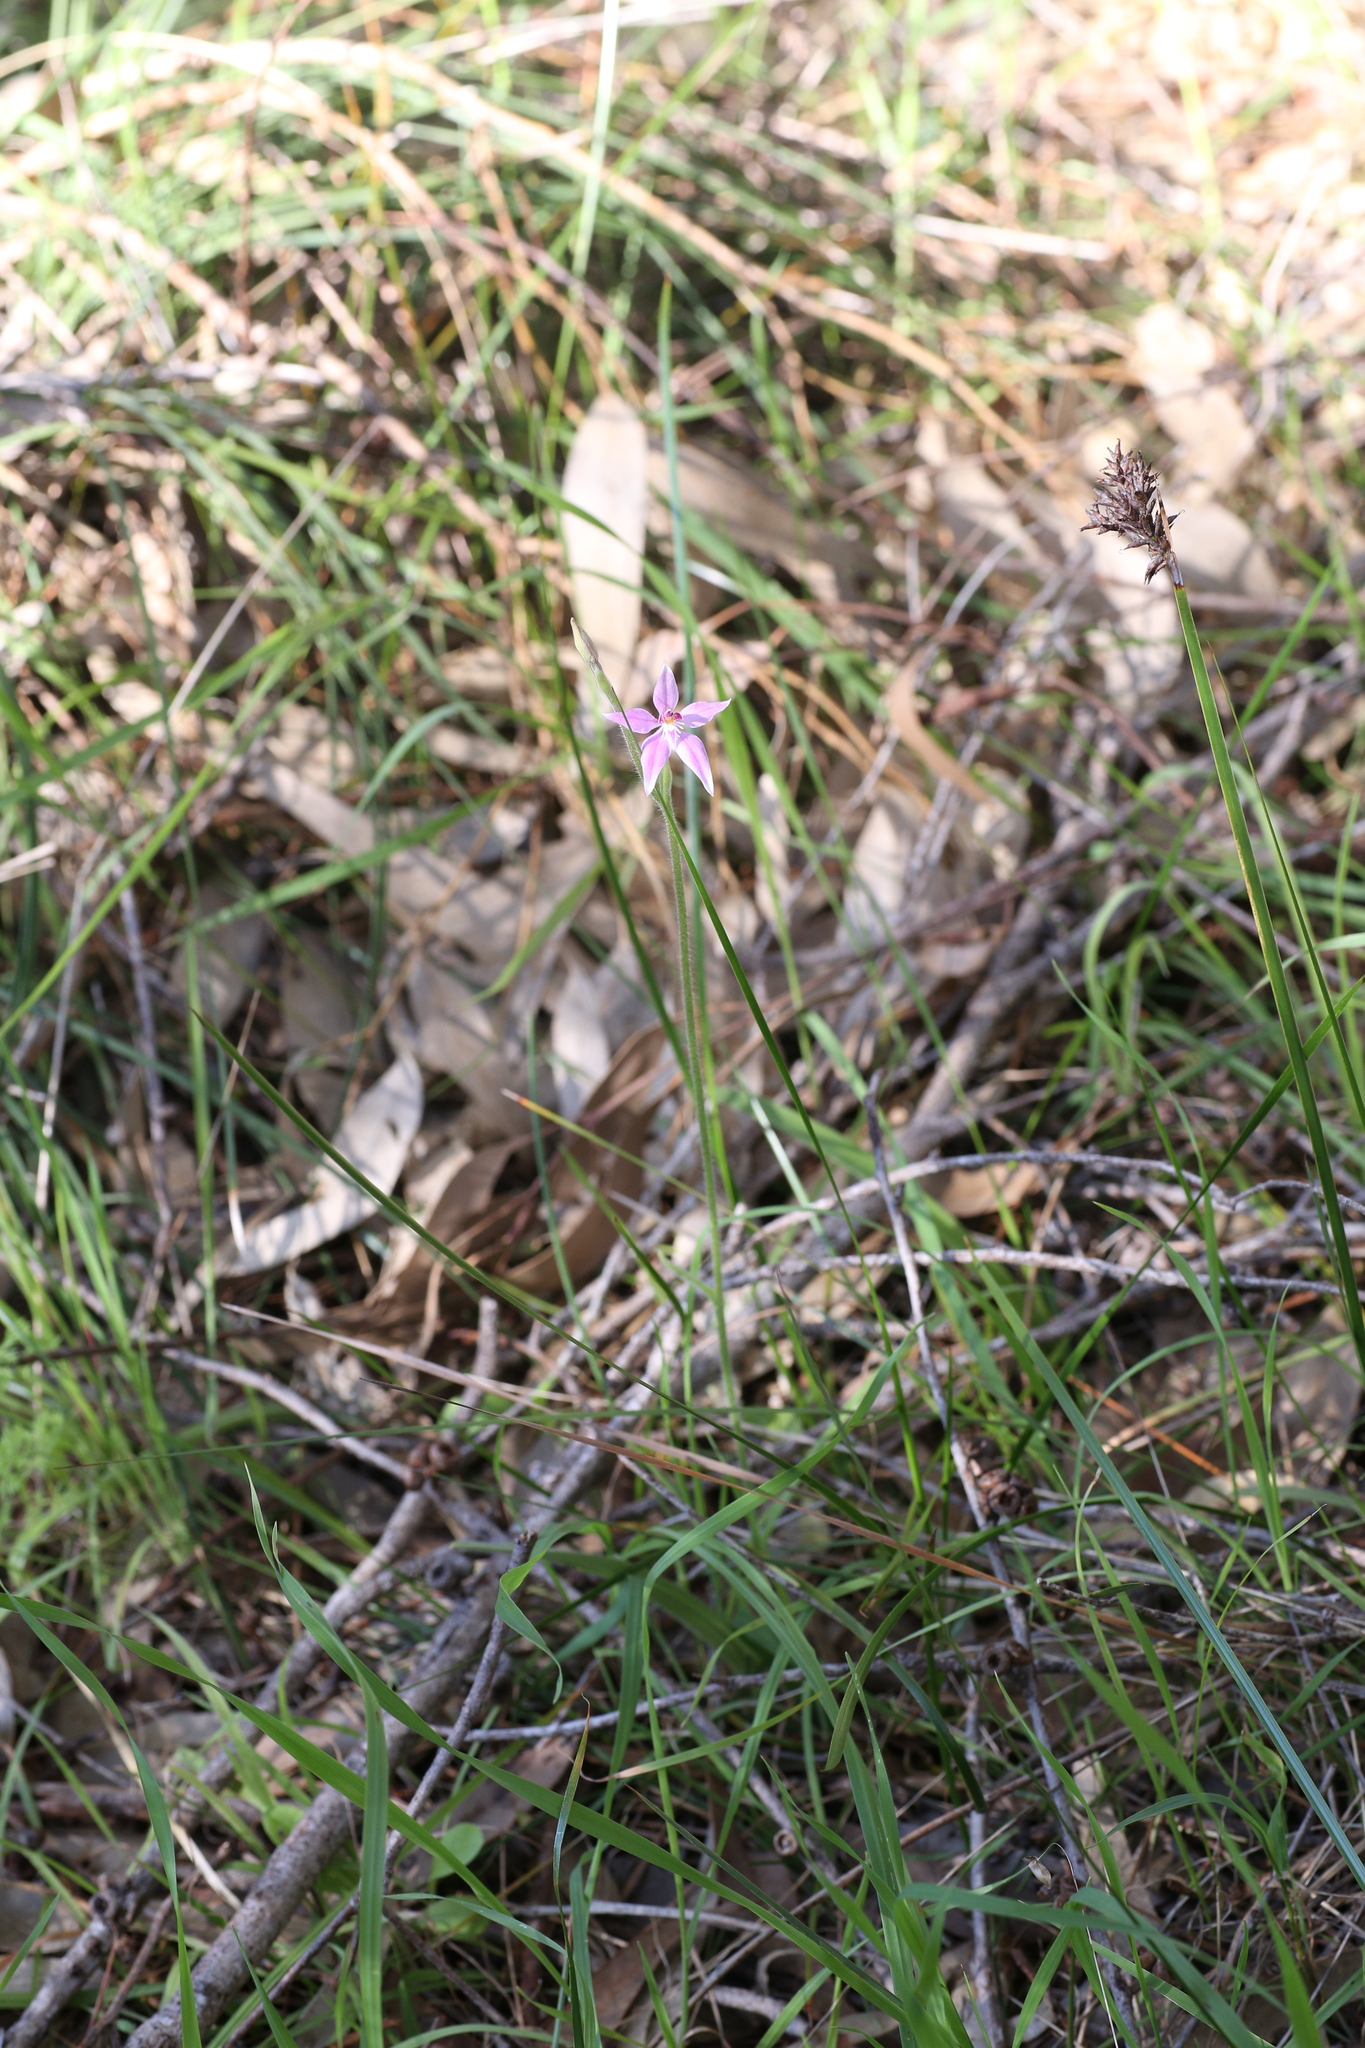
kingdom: Plantae
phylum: Tracheophyta
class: Liliopsida
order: Asparagales
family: Orchidaceae
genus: Caladenia
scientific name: Caladenia latifolia
